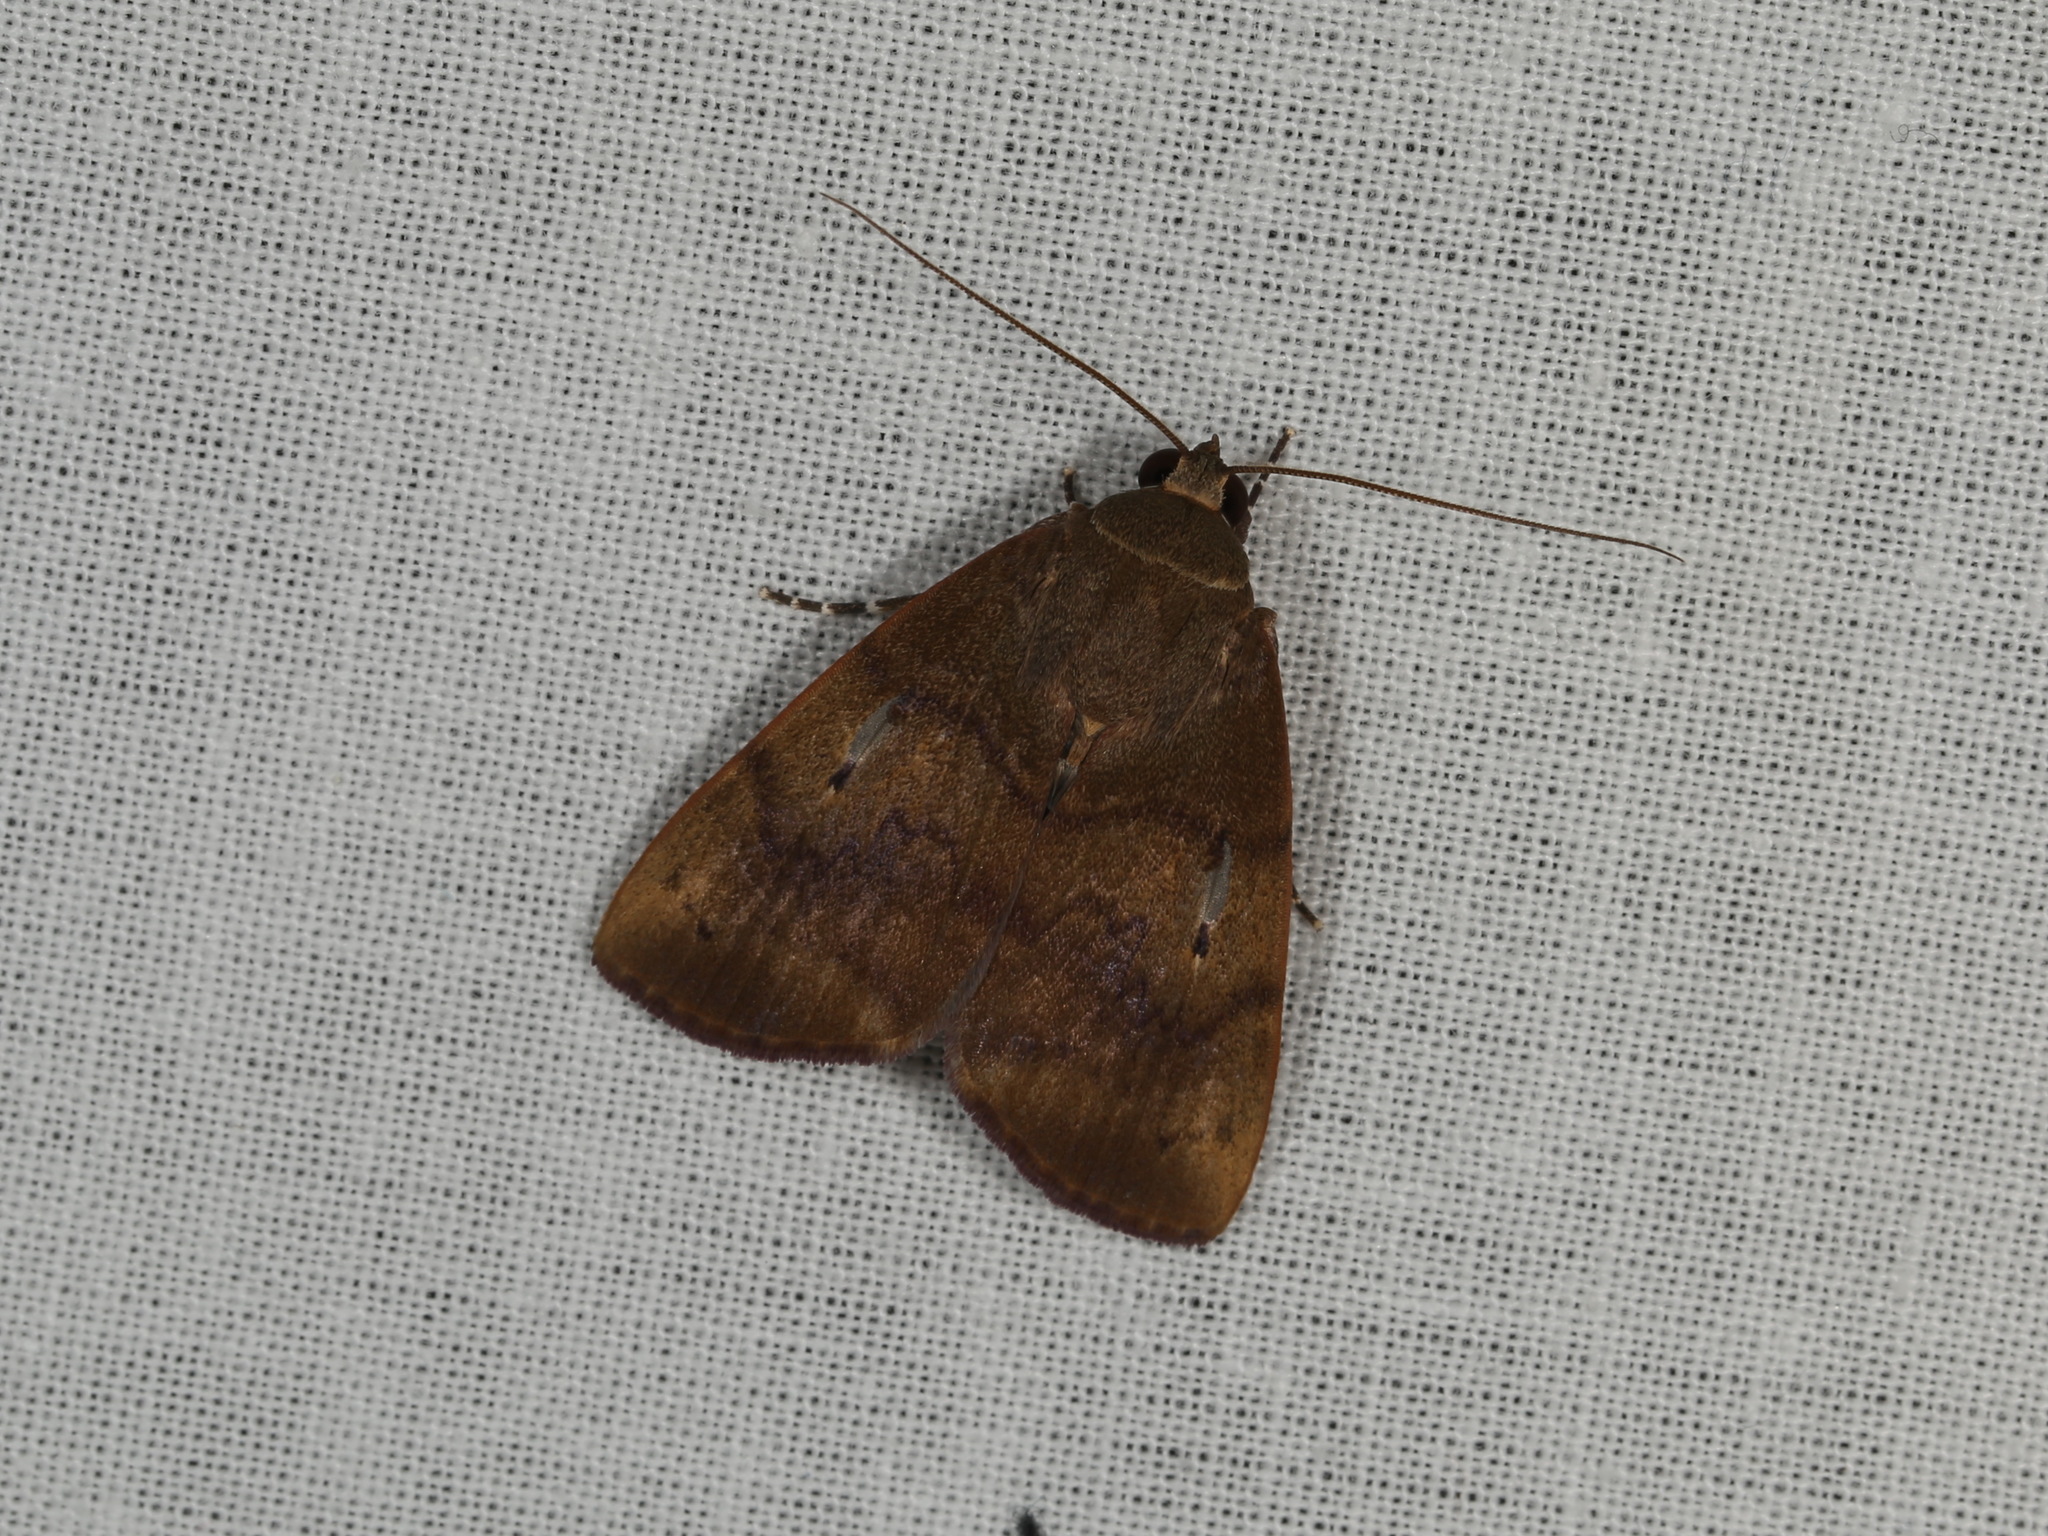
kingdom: Animalia
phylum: Arthropoda
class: Insecta
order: Lepidoptera
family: Nolidae
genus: Maceda
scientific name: Maceda mansueta
